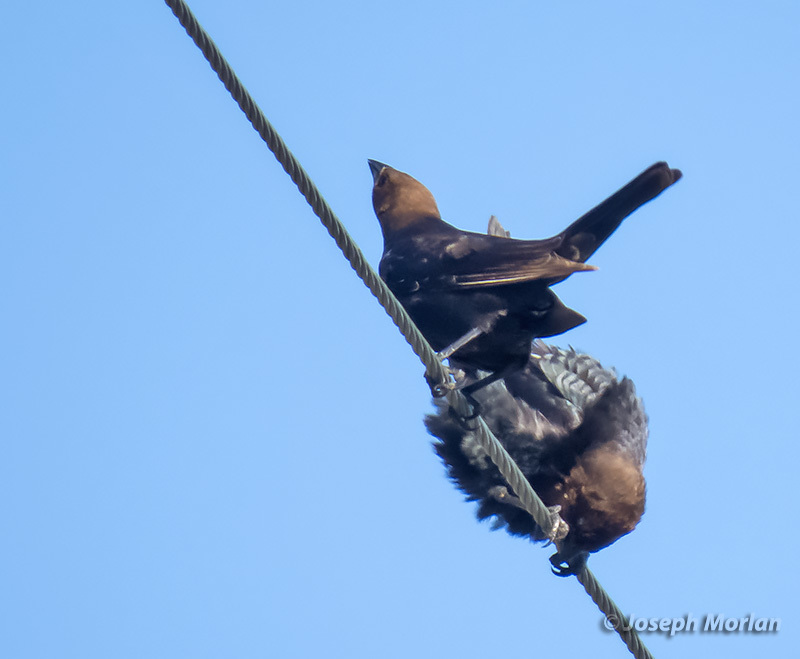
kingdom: Animalia
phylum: Chordata
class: Aves
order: Passeriformes
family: Icteridae
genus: Molothrus
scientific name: Molothrus ater
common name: Brown-headed cowbird
